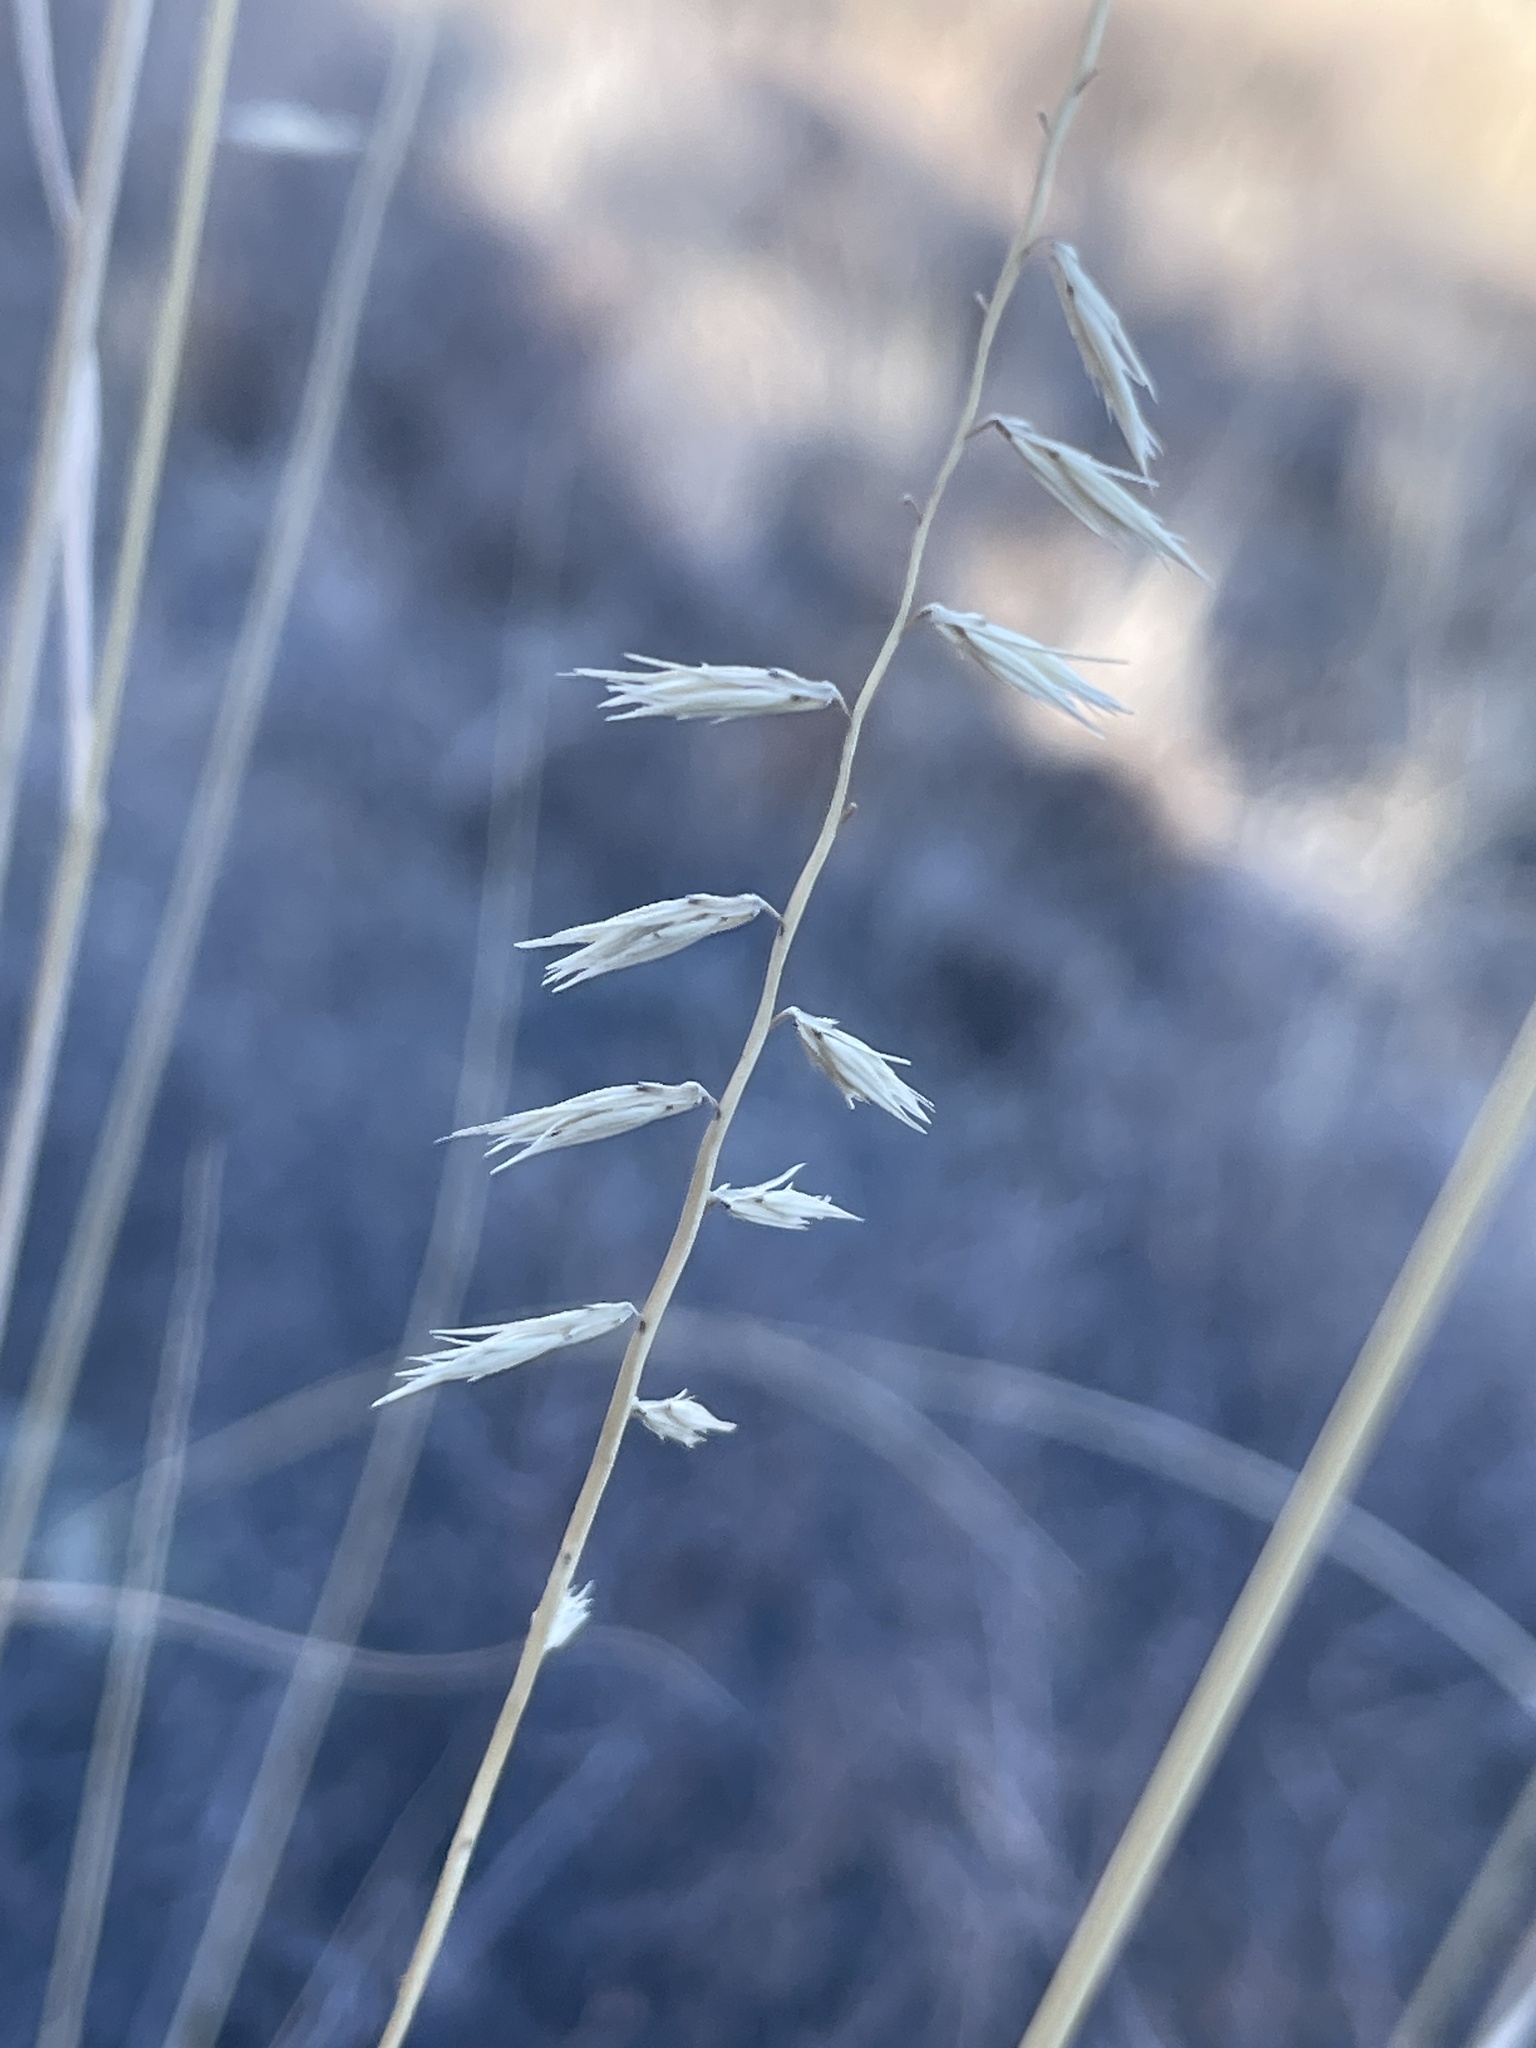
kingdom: Plantae
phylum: Tracheophyta
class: Liliopsida
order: Poales
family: Poaceae
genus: Bouteloua
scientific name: Bouteloua curtipendula
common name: Side-oats grama
